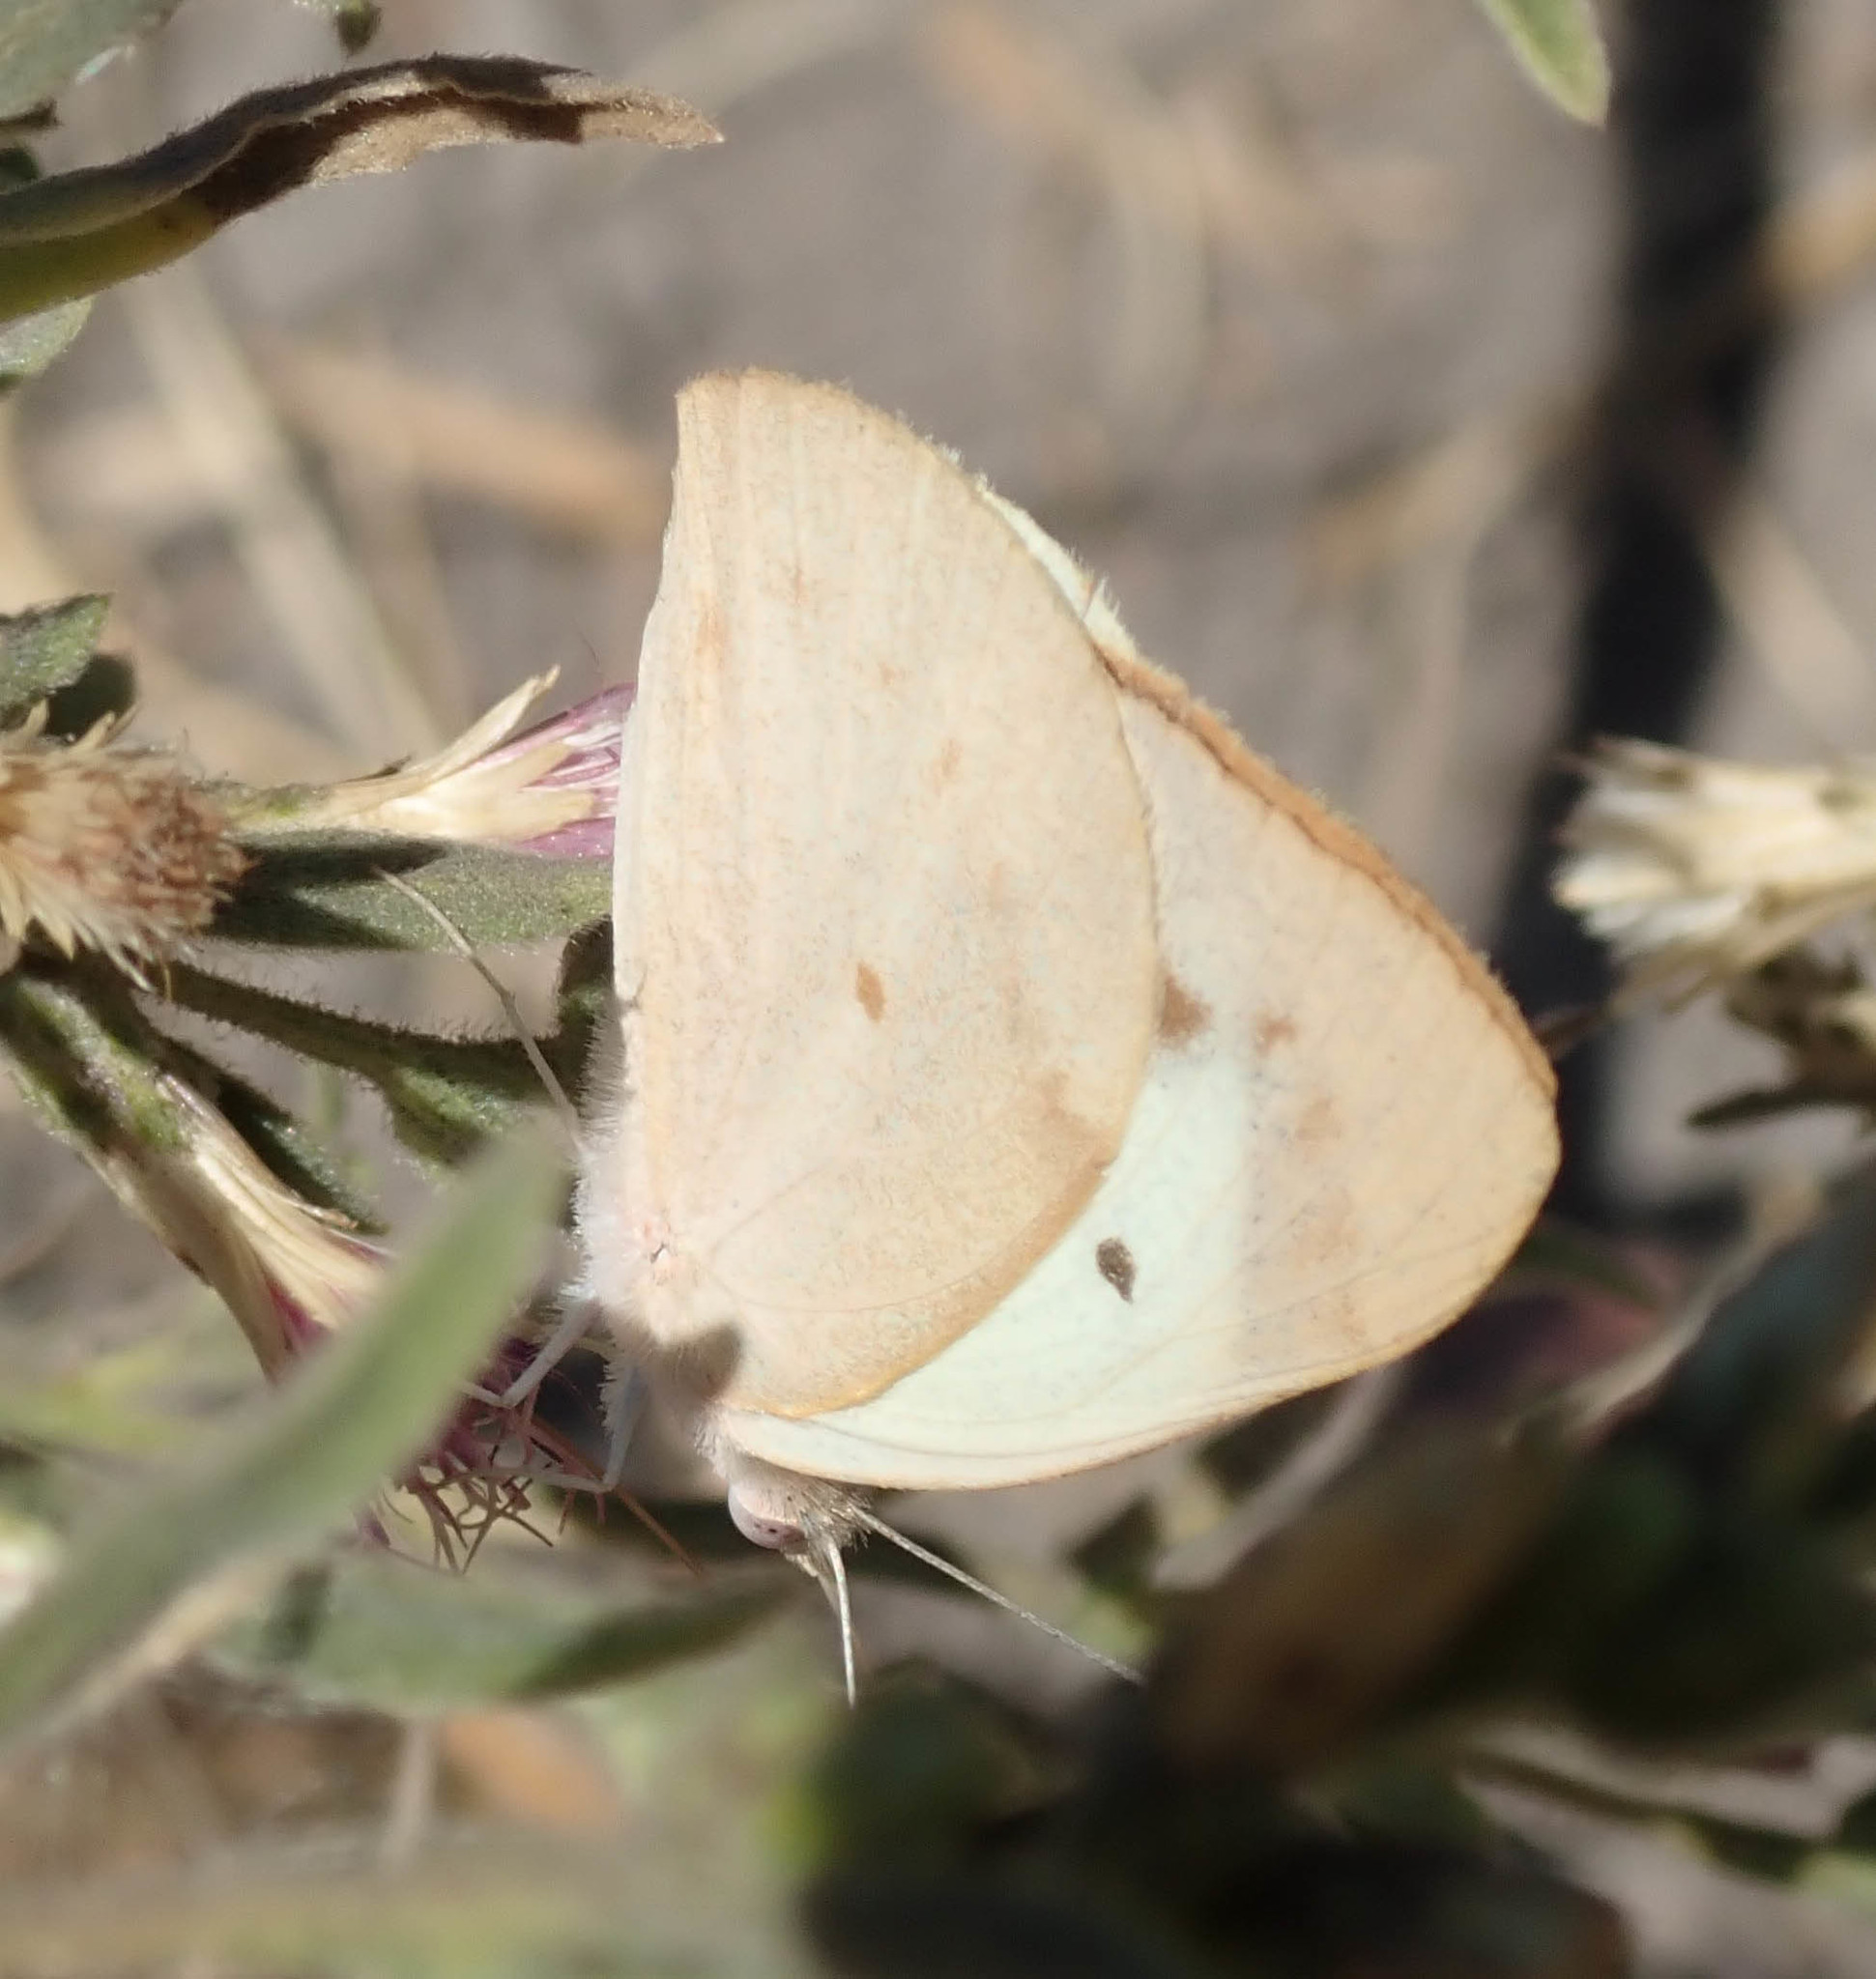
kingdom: Animalia
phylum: Arthropoda
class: Insecta
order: Lepidoptera
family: Pieridae
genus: Colotis
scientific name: Colotis eris
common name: Banded gold tip
